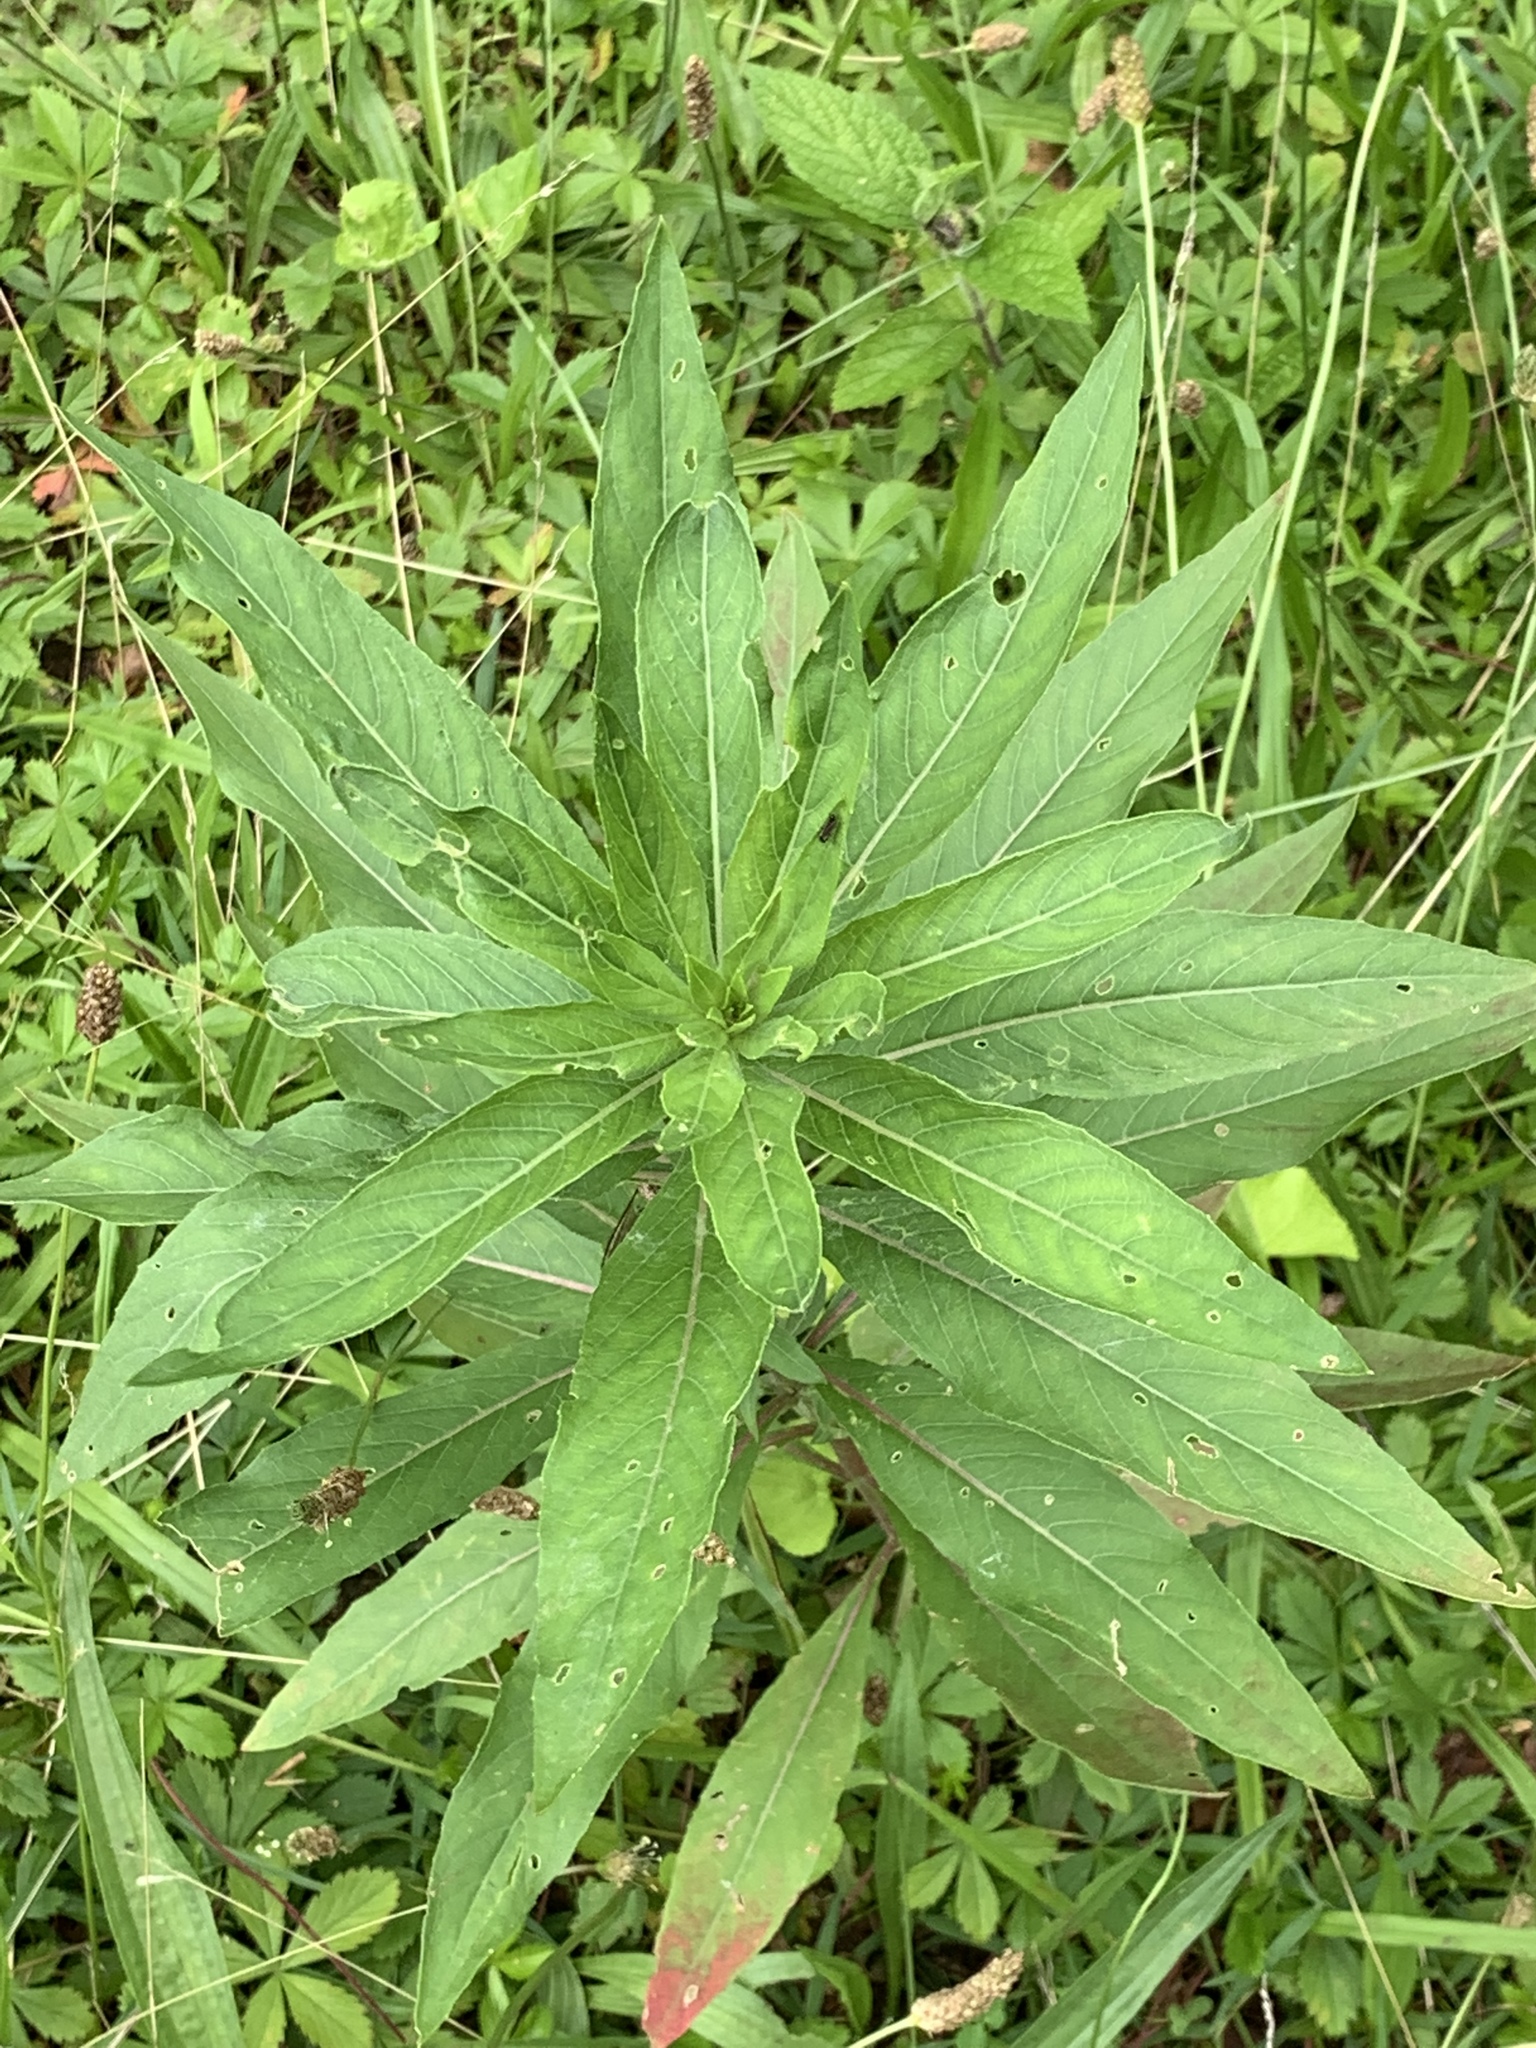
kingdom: Plantae
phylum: Tracheophyta
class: Magnoliopsida
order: Myrtales
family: Onagraceae
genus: Oenothera
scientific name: Oenothera biennis
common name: Common evening-primrose
